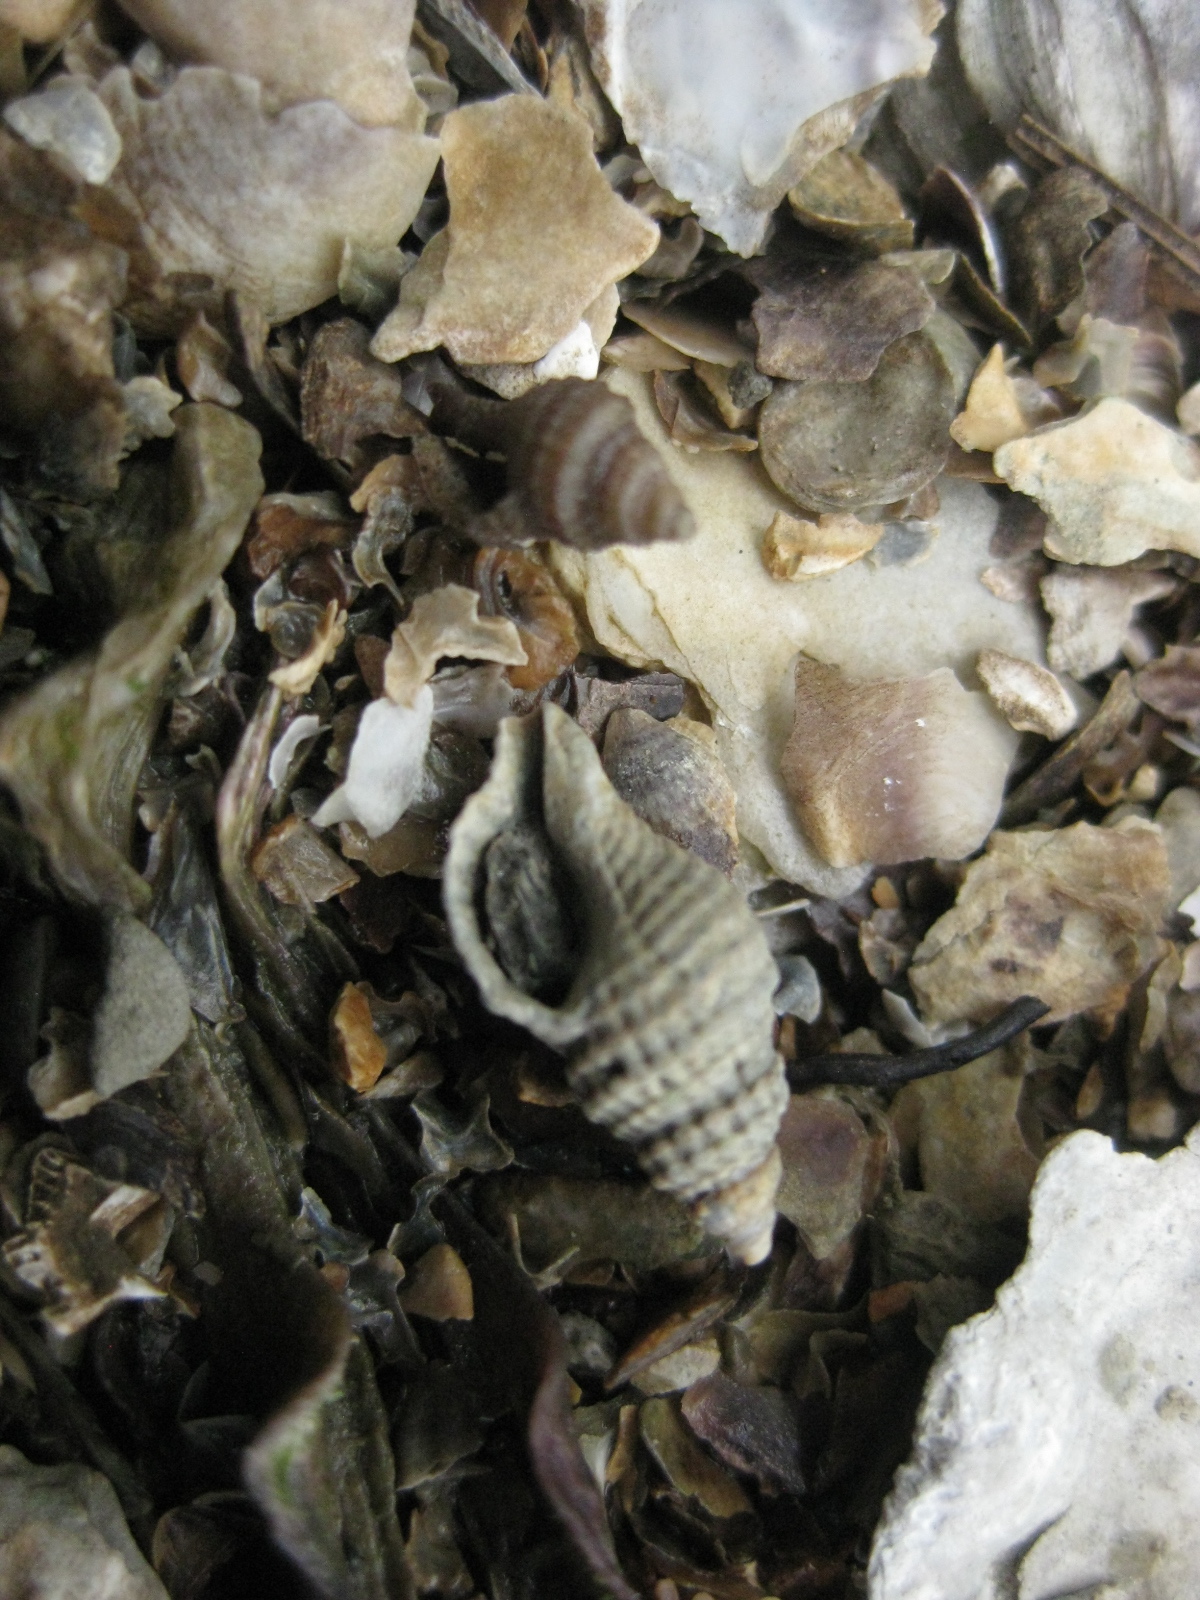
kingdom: Animalia
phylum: Mollusca
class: Gastropoda
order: Neogastropoda
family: Muricidae
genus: Xymene
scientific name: Xymene plebeius
